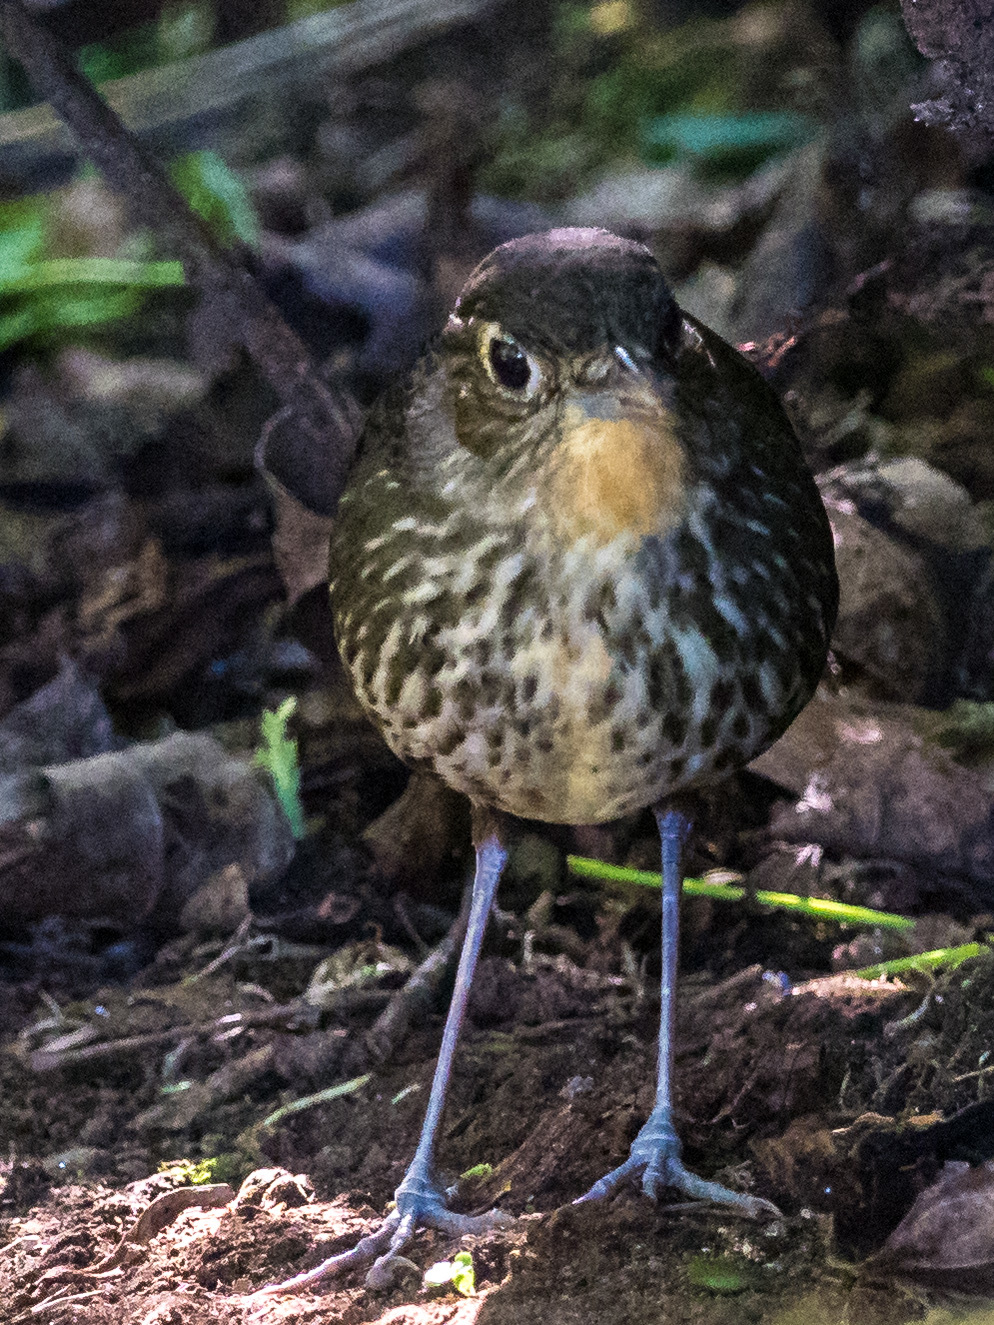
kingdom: Animalia
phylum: Chordata
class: Aves
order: Passeriformes
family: Grallariidae
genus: Grallaria
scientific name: Grallaria bangsi
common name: Santa marta antpitta
